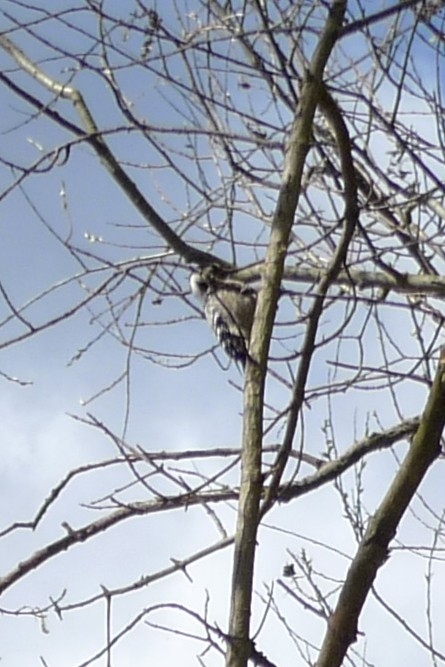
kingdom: Animalia
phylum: Chordata
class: Aves
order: Piciformes
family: Picidae
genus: Dryobates
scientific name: Dryobates minor
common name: Lesser spotted woodpecker
